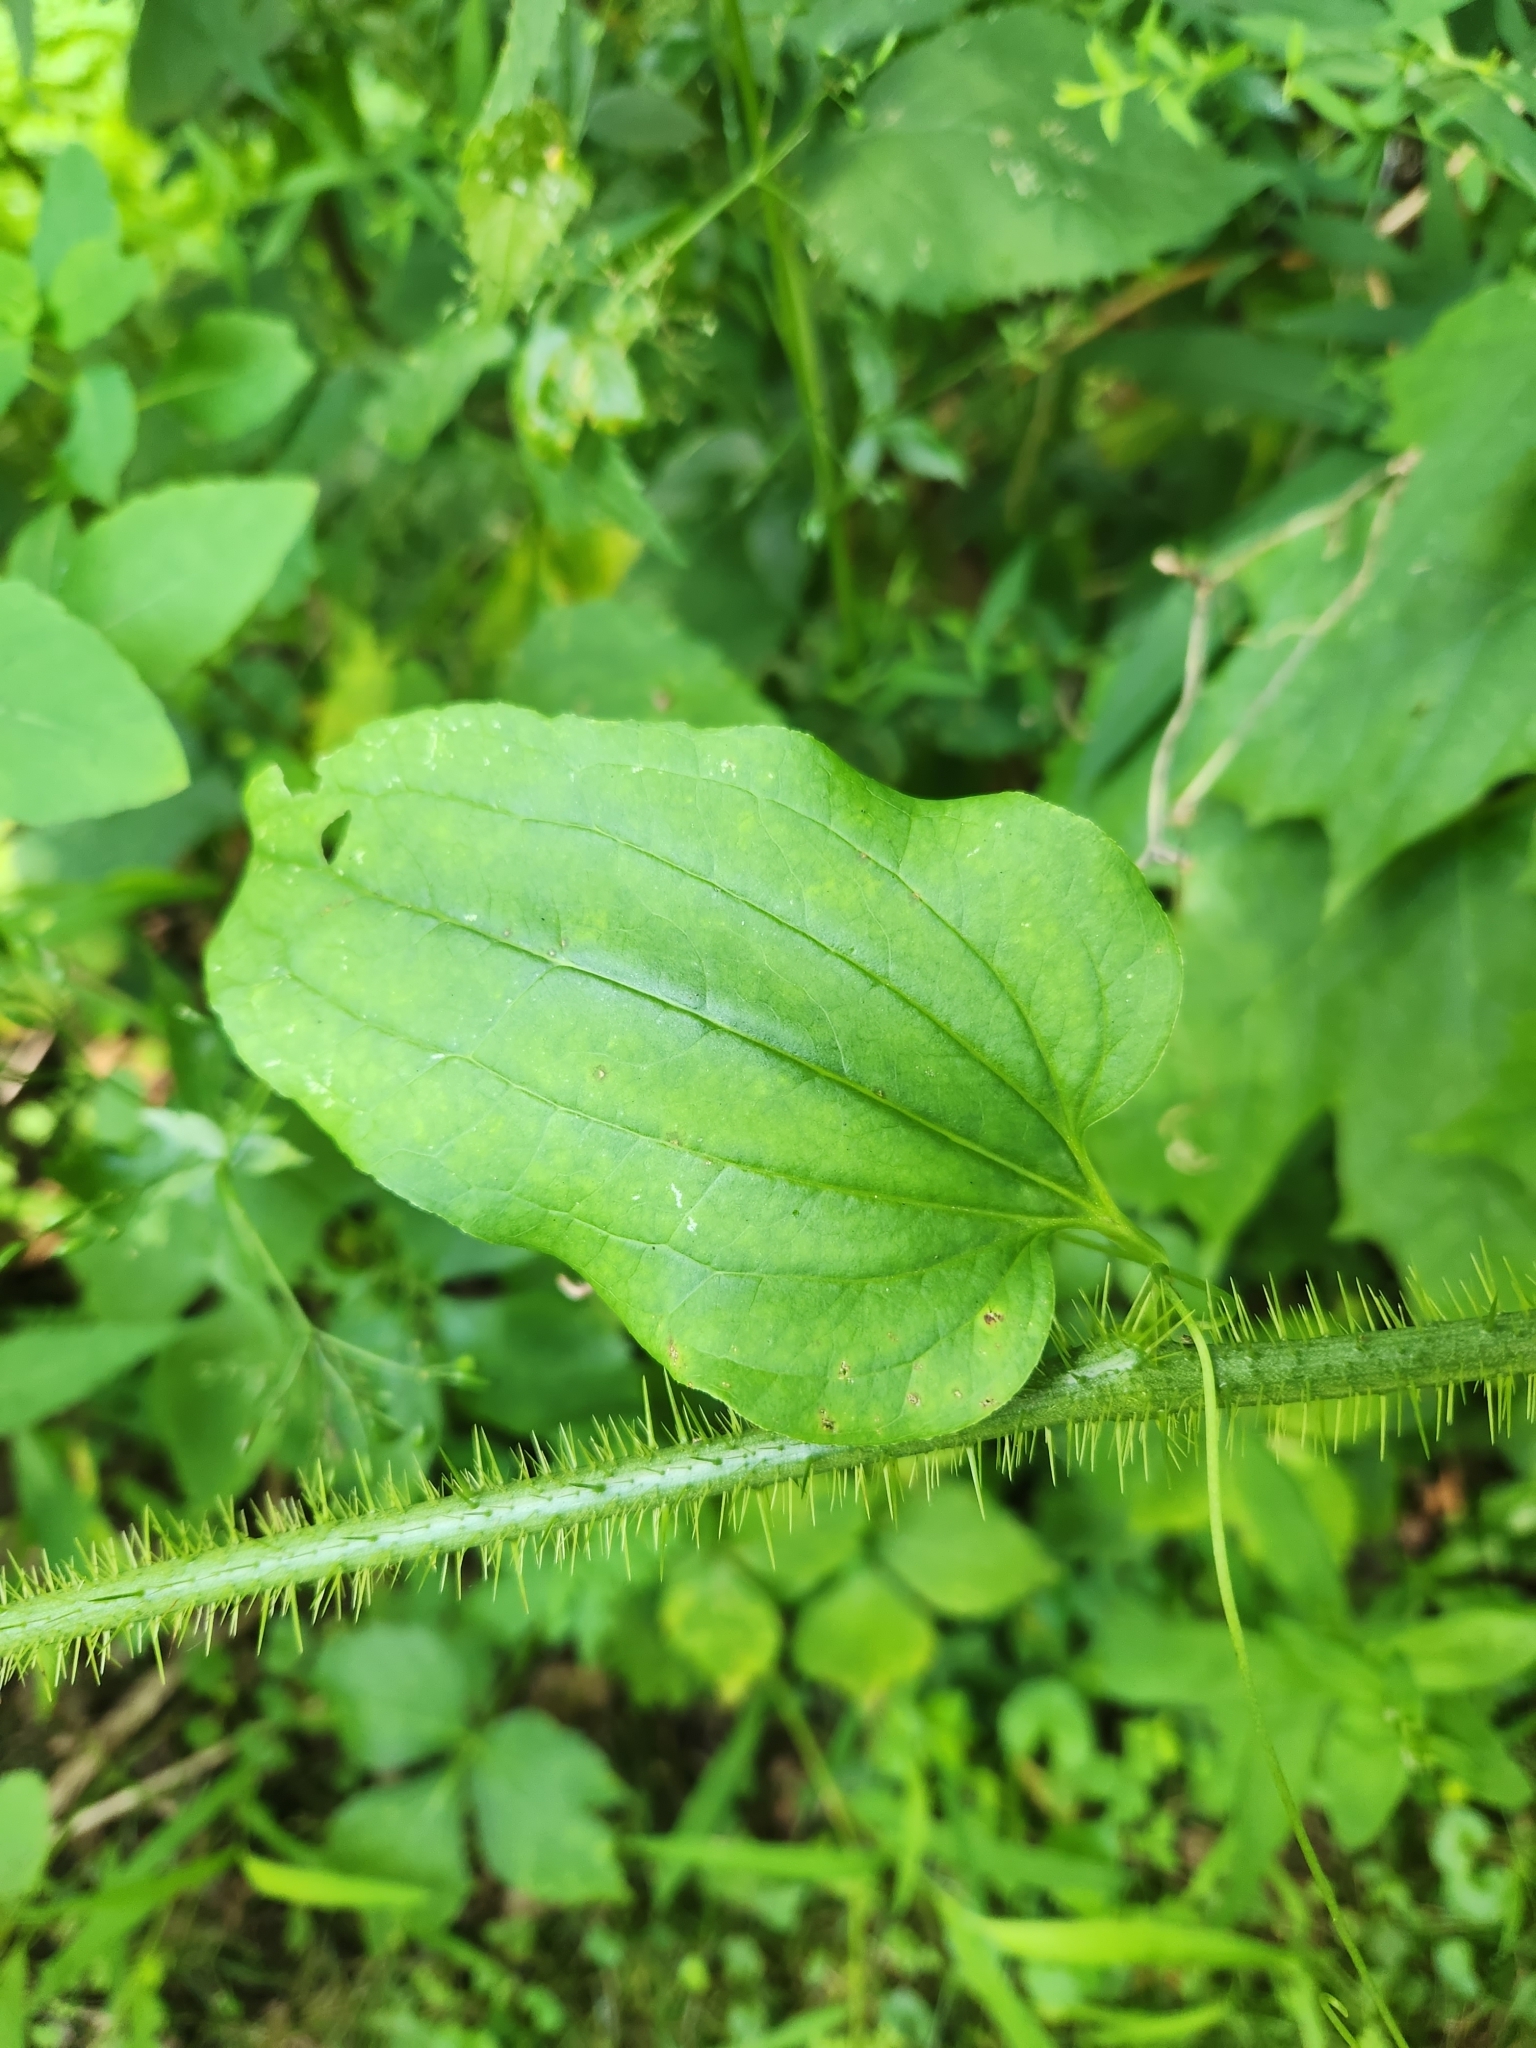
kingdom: Plantae
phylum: Tracheophyta
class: Liliopsida
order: Liliales
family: Smilacaceae
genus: Smilax
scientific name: Smilax tamnoides
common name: Hellfetter
